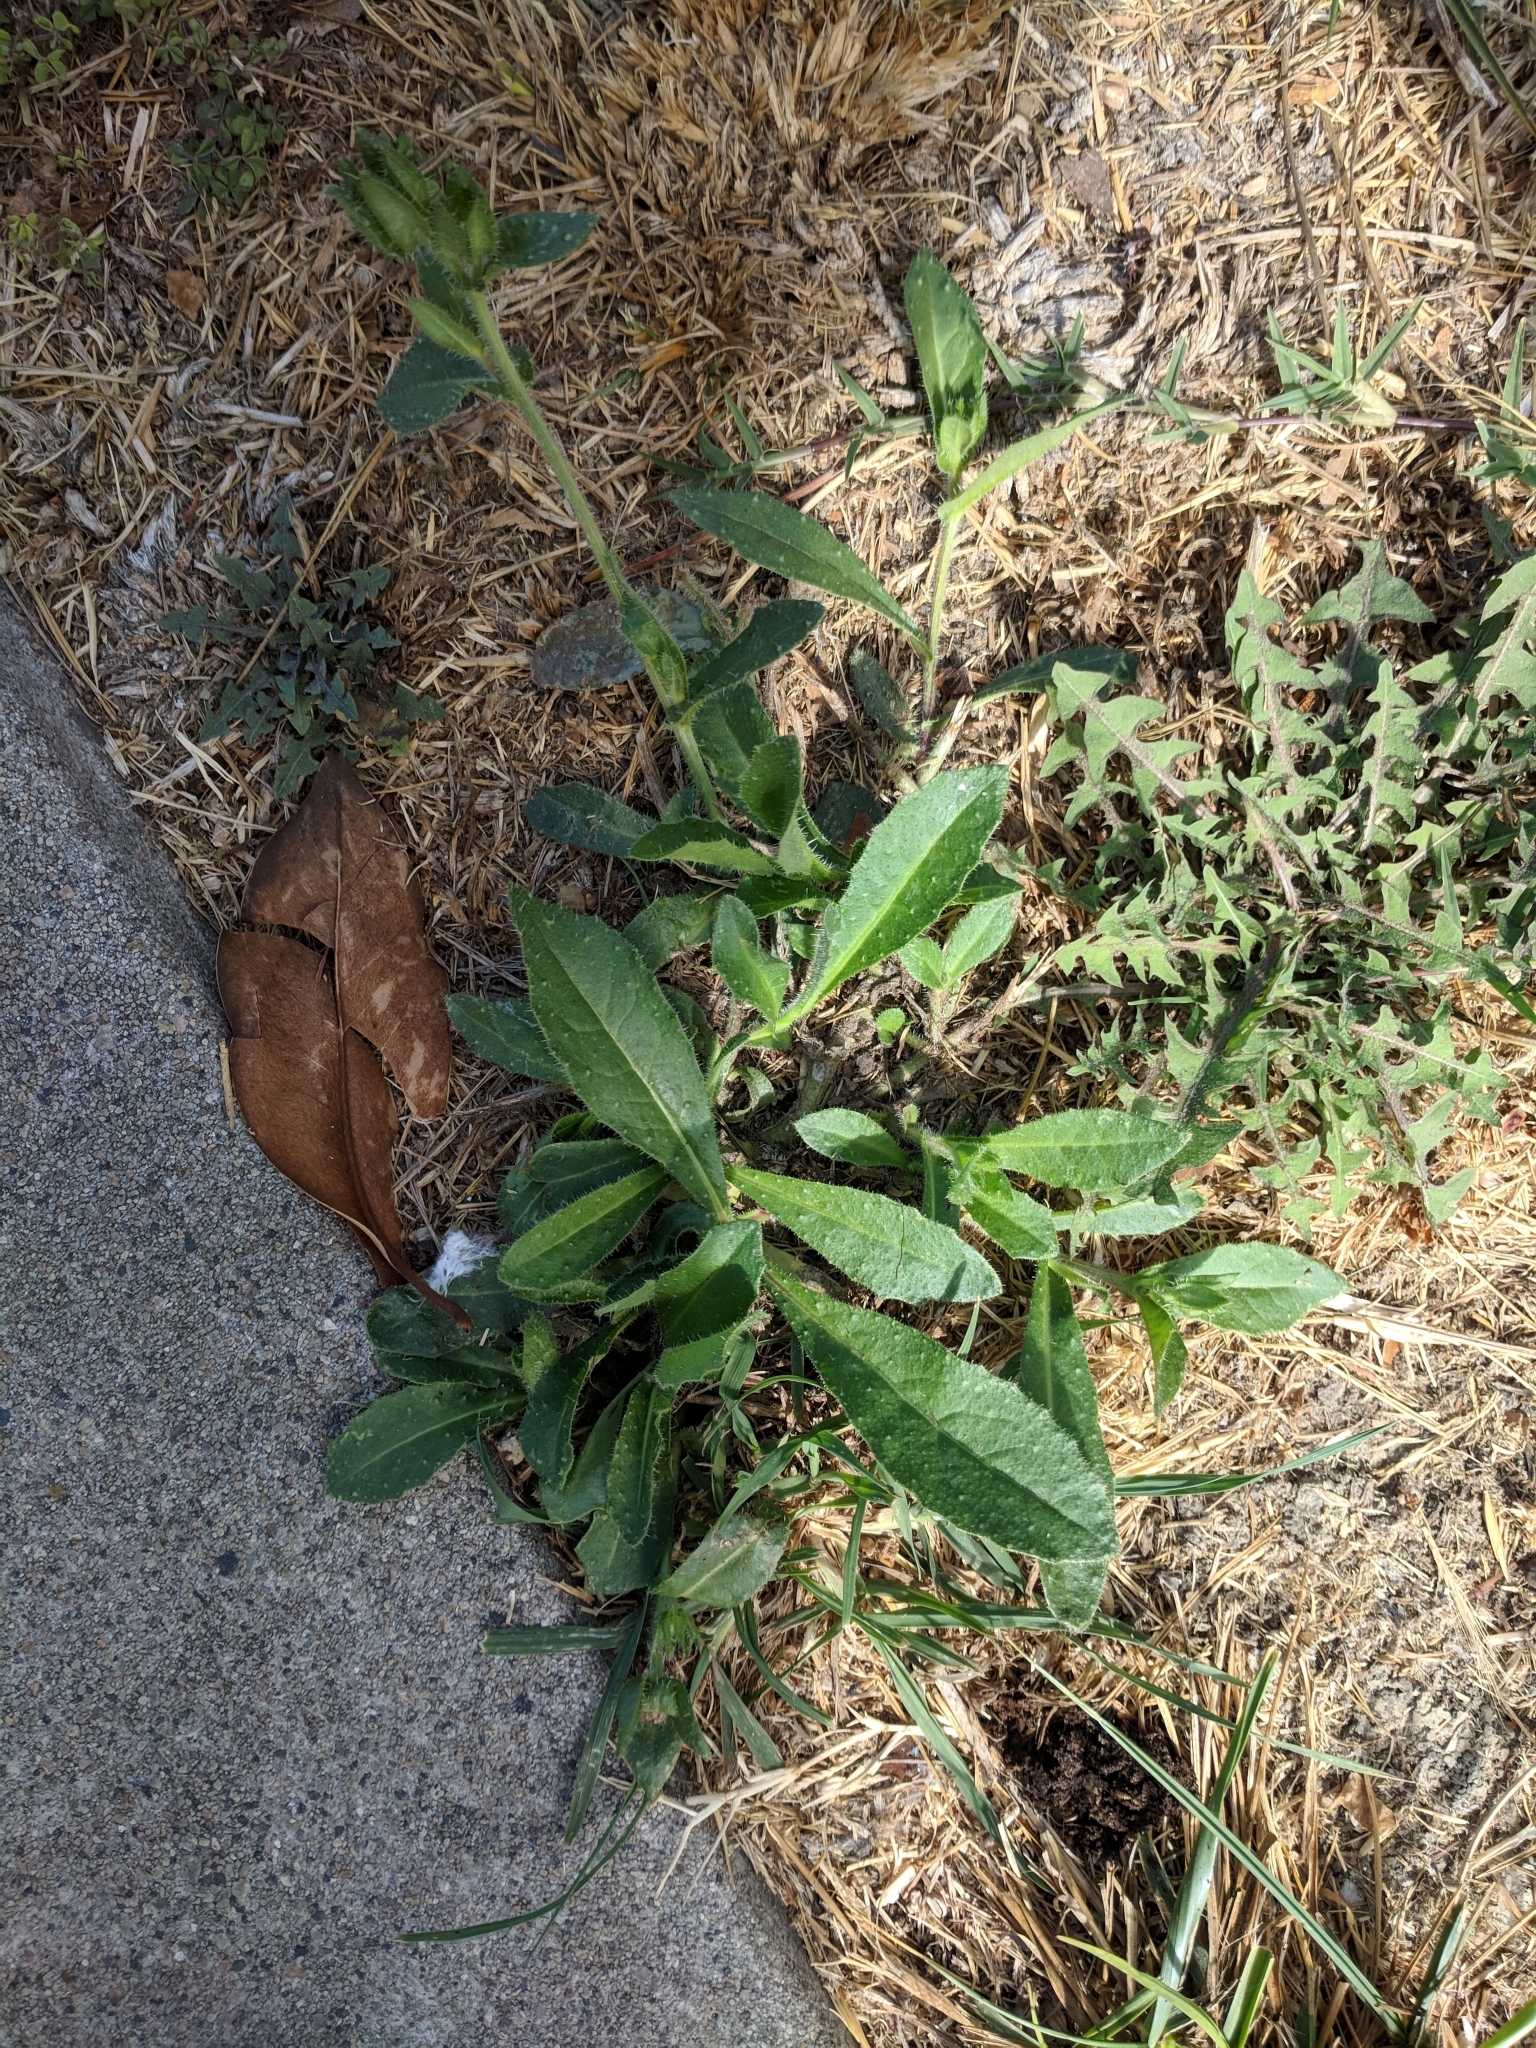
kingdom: Plantae
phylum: Tracheophyta
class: Magnoliopsida
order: Asterales
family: Asteraceae
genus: Helminthotheca
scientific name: Helminthotheca echioides
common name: Ox-tongue
